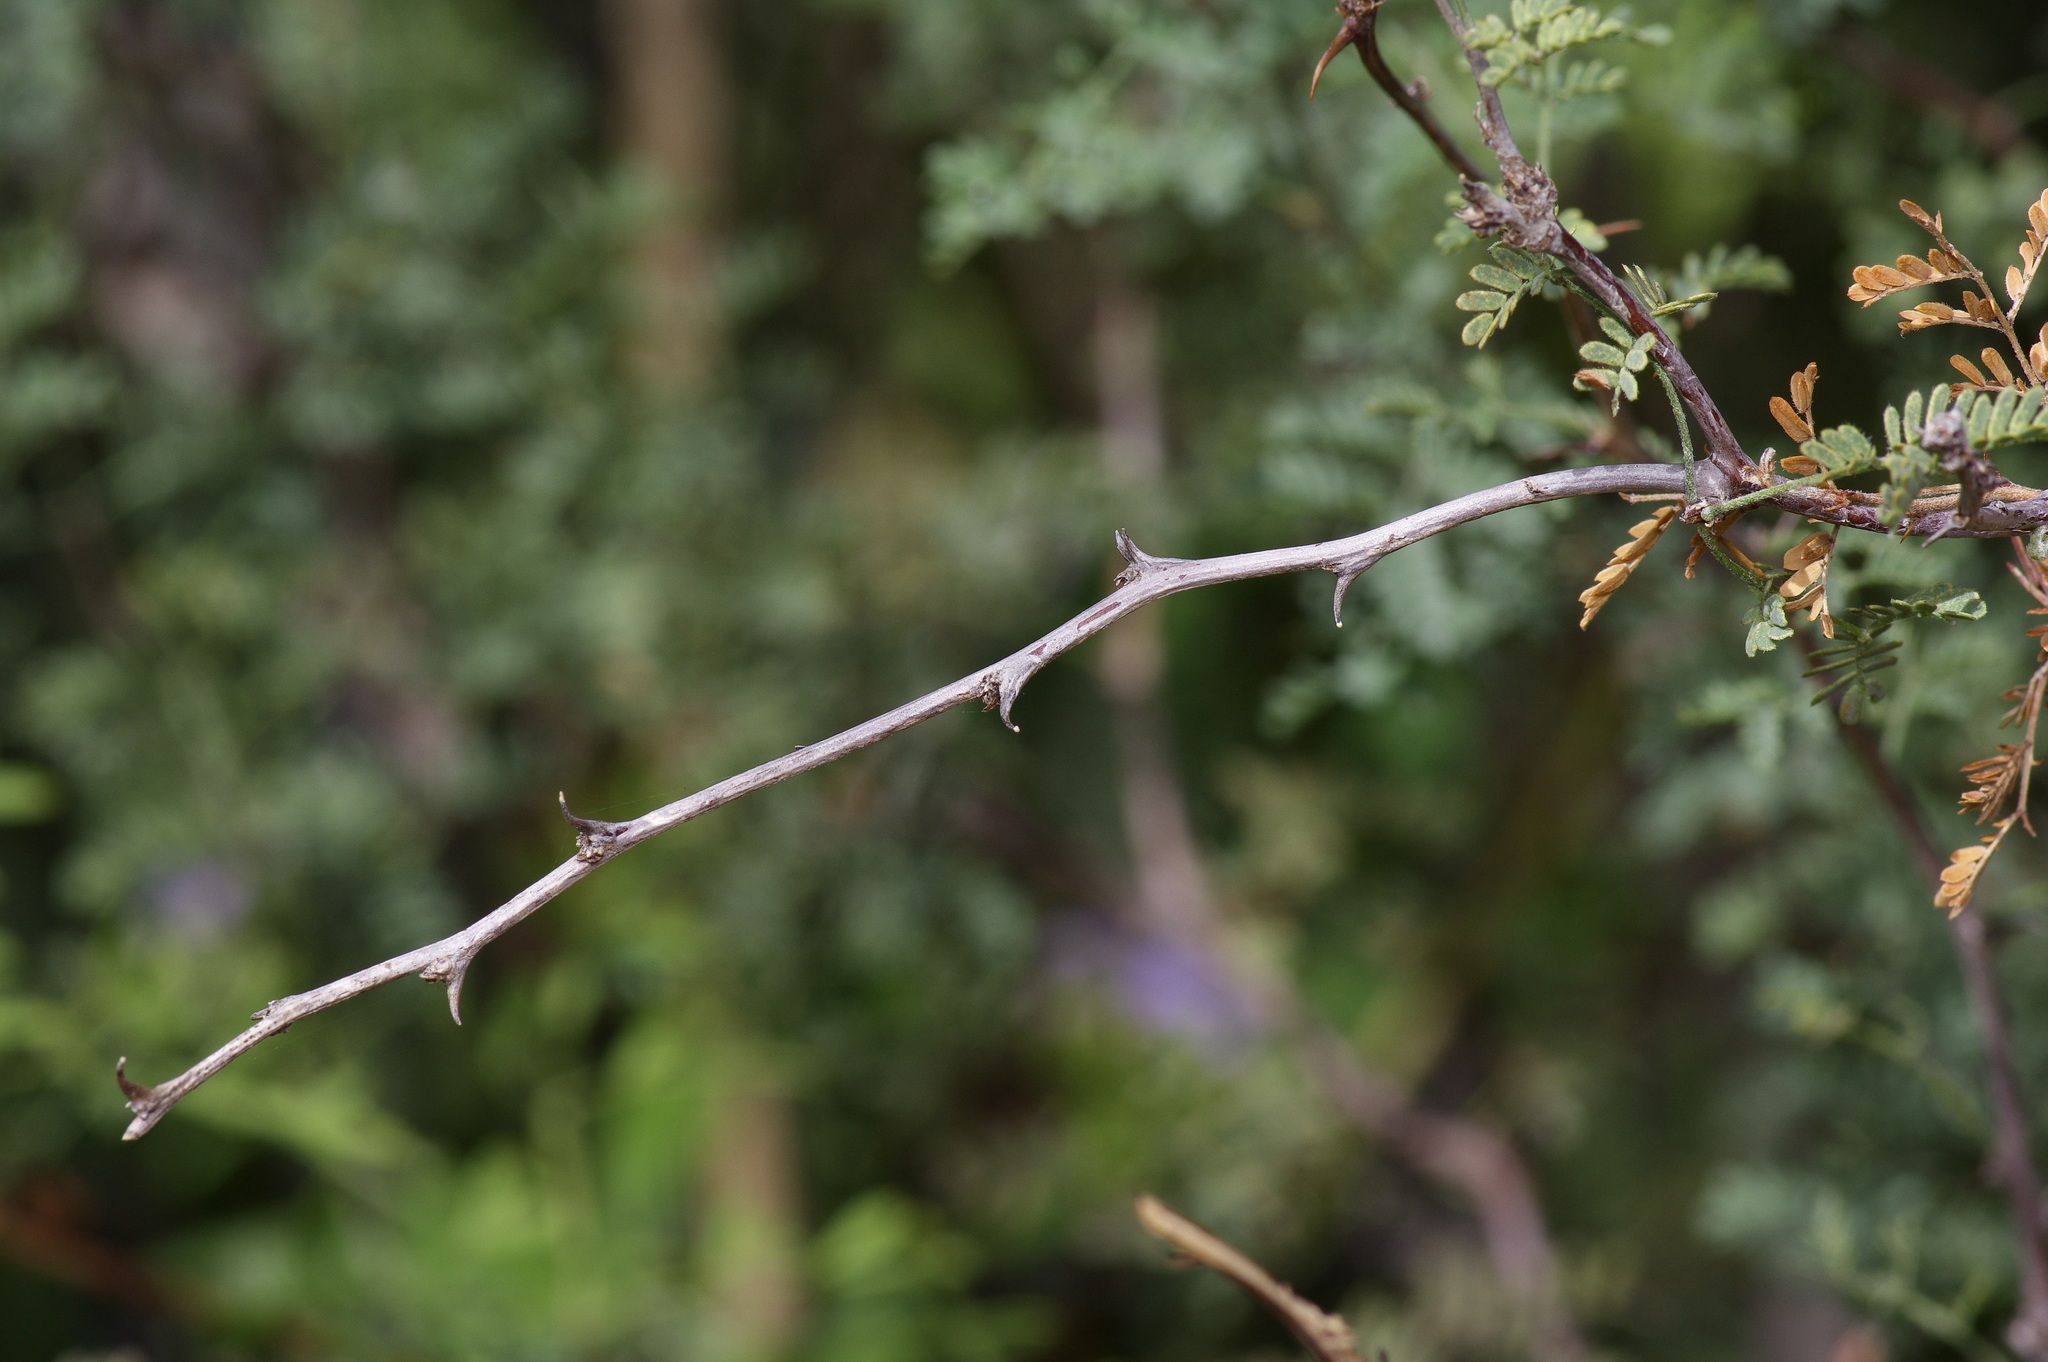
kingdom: Plantae
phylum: Tracheophyta
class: Magnoliopsida
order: Fabales
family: Fabaceae
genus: Mimosa
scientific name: Mimosa texana
